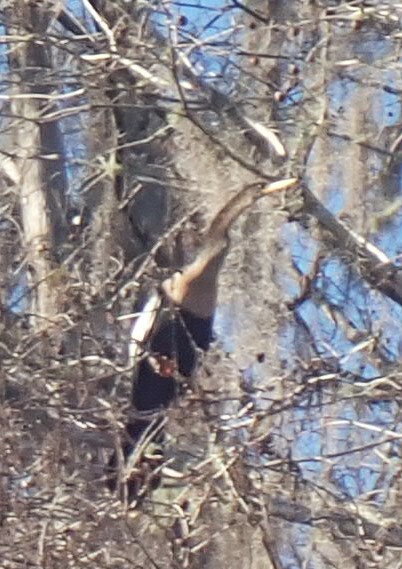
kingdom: Animalia
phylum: Chordata
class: Aves
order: Suliformes
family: Anhingidae
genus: Anhinga
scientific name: Anhinga anhinga
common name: Anhinga
